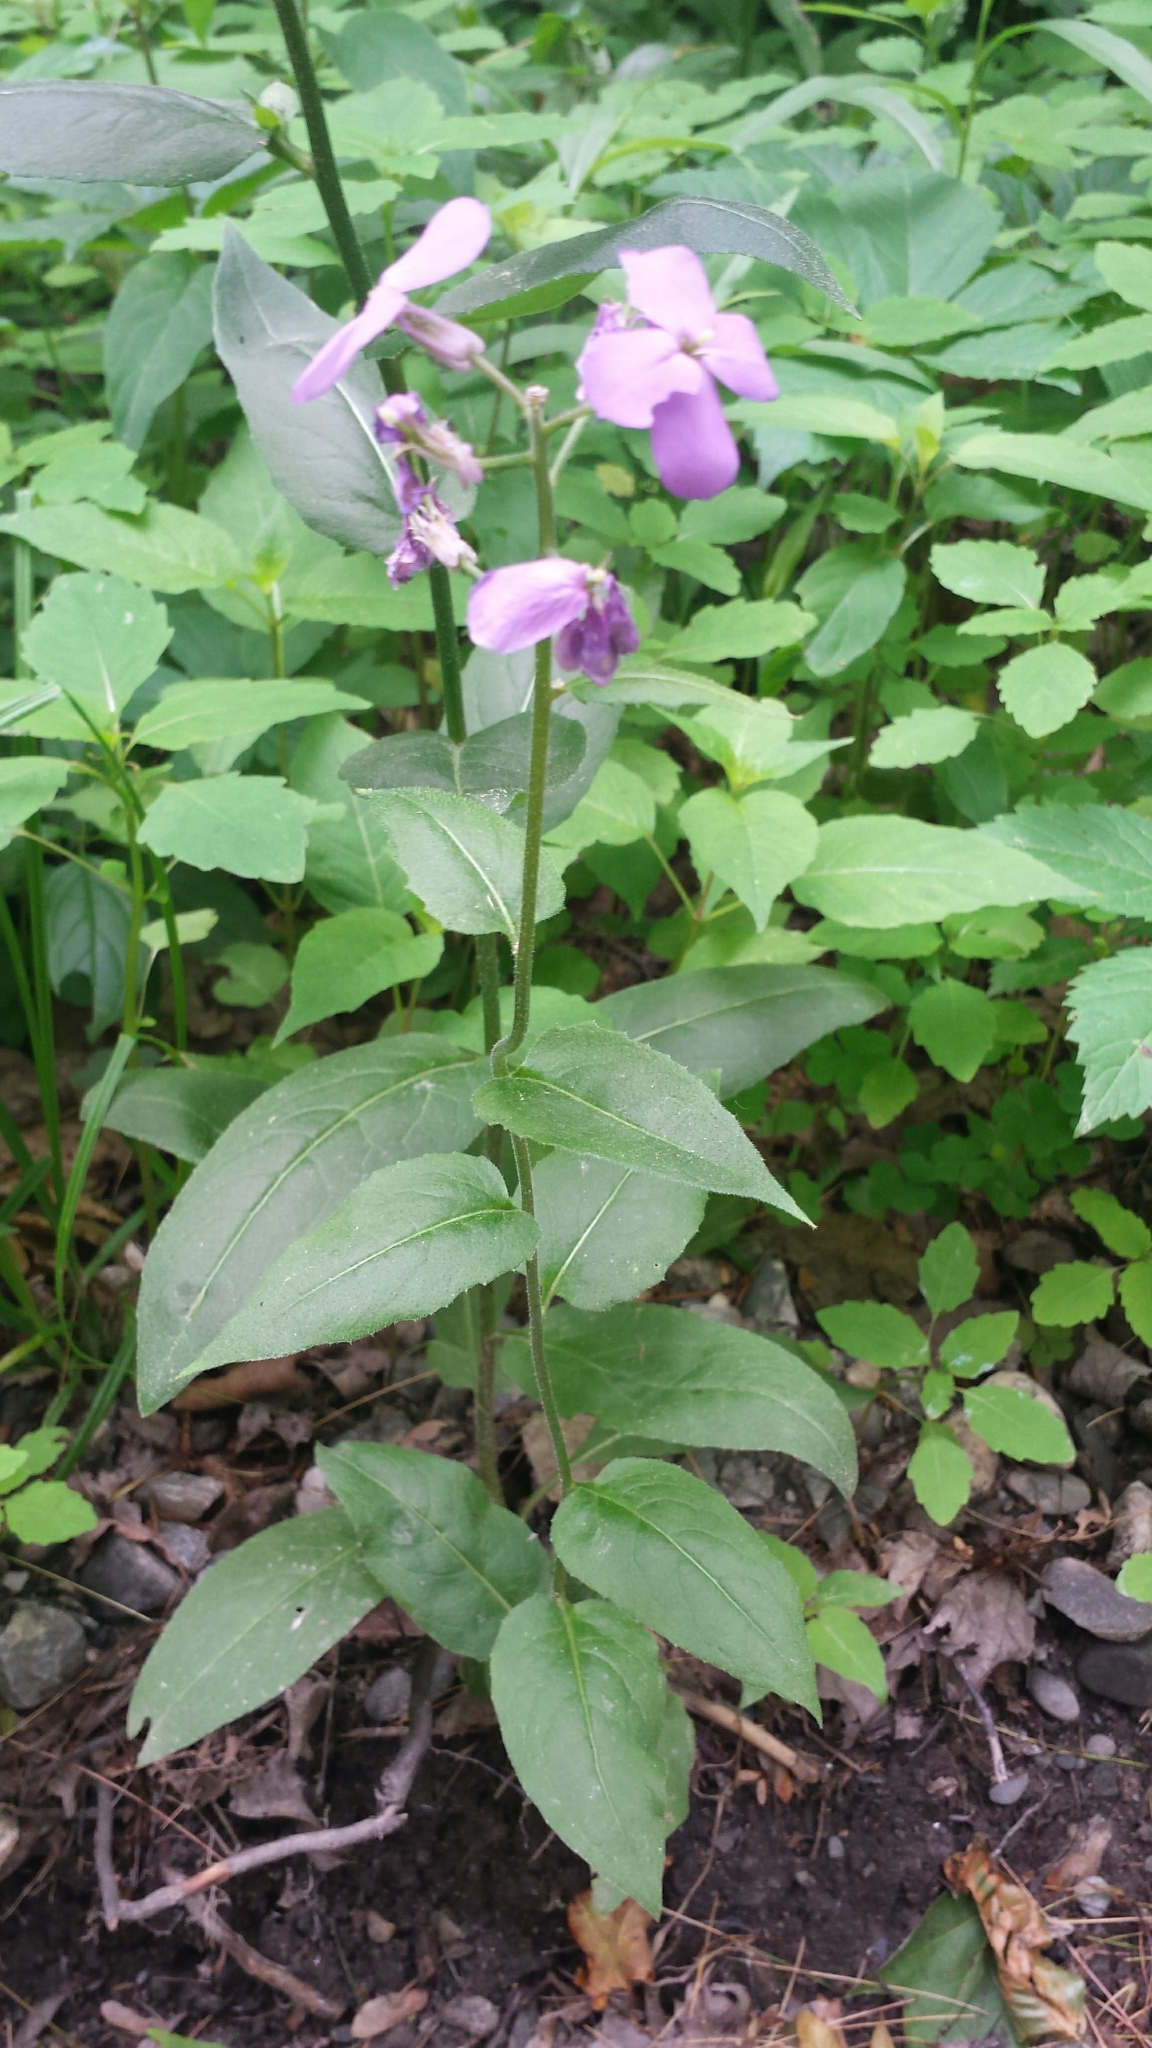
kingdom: Plantae
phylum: Tracheophyta
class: Magnoliopsida
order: Brassicales
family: Brassicaceae
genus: Hesperis
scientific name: Hesperis matronalis
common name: Dame's-violet
